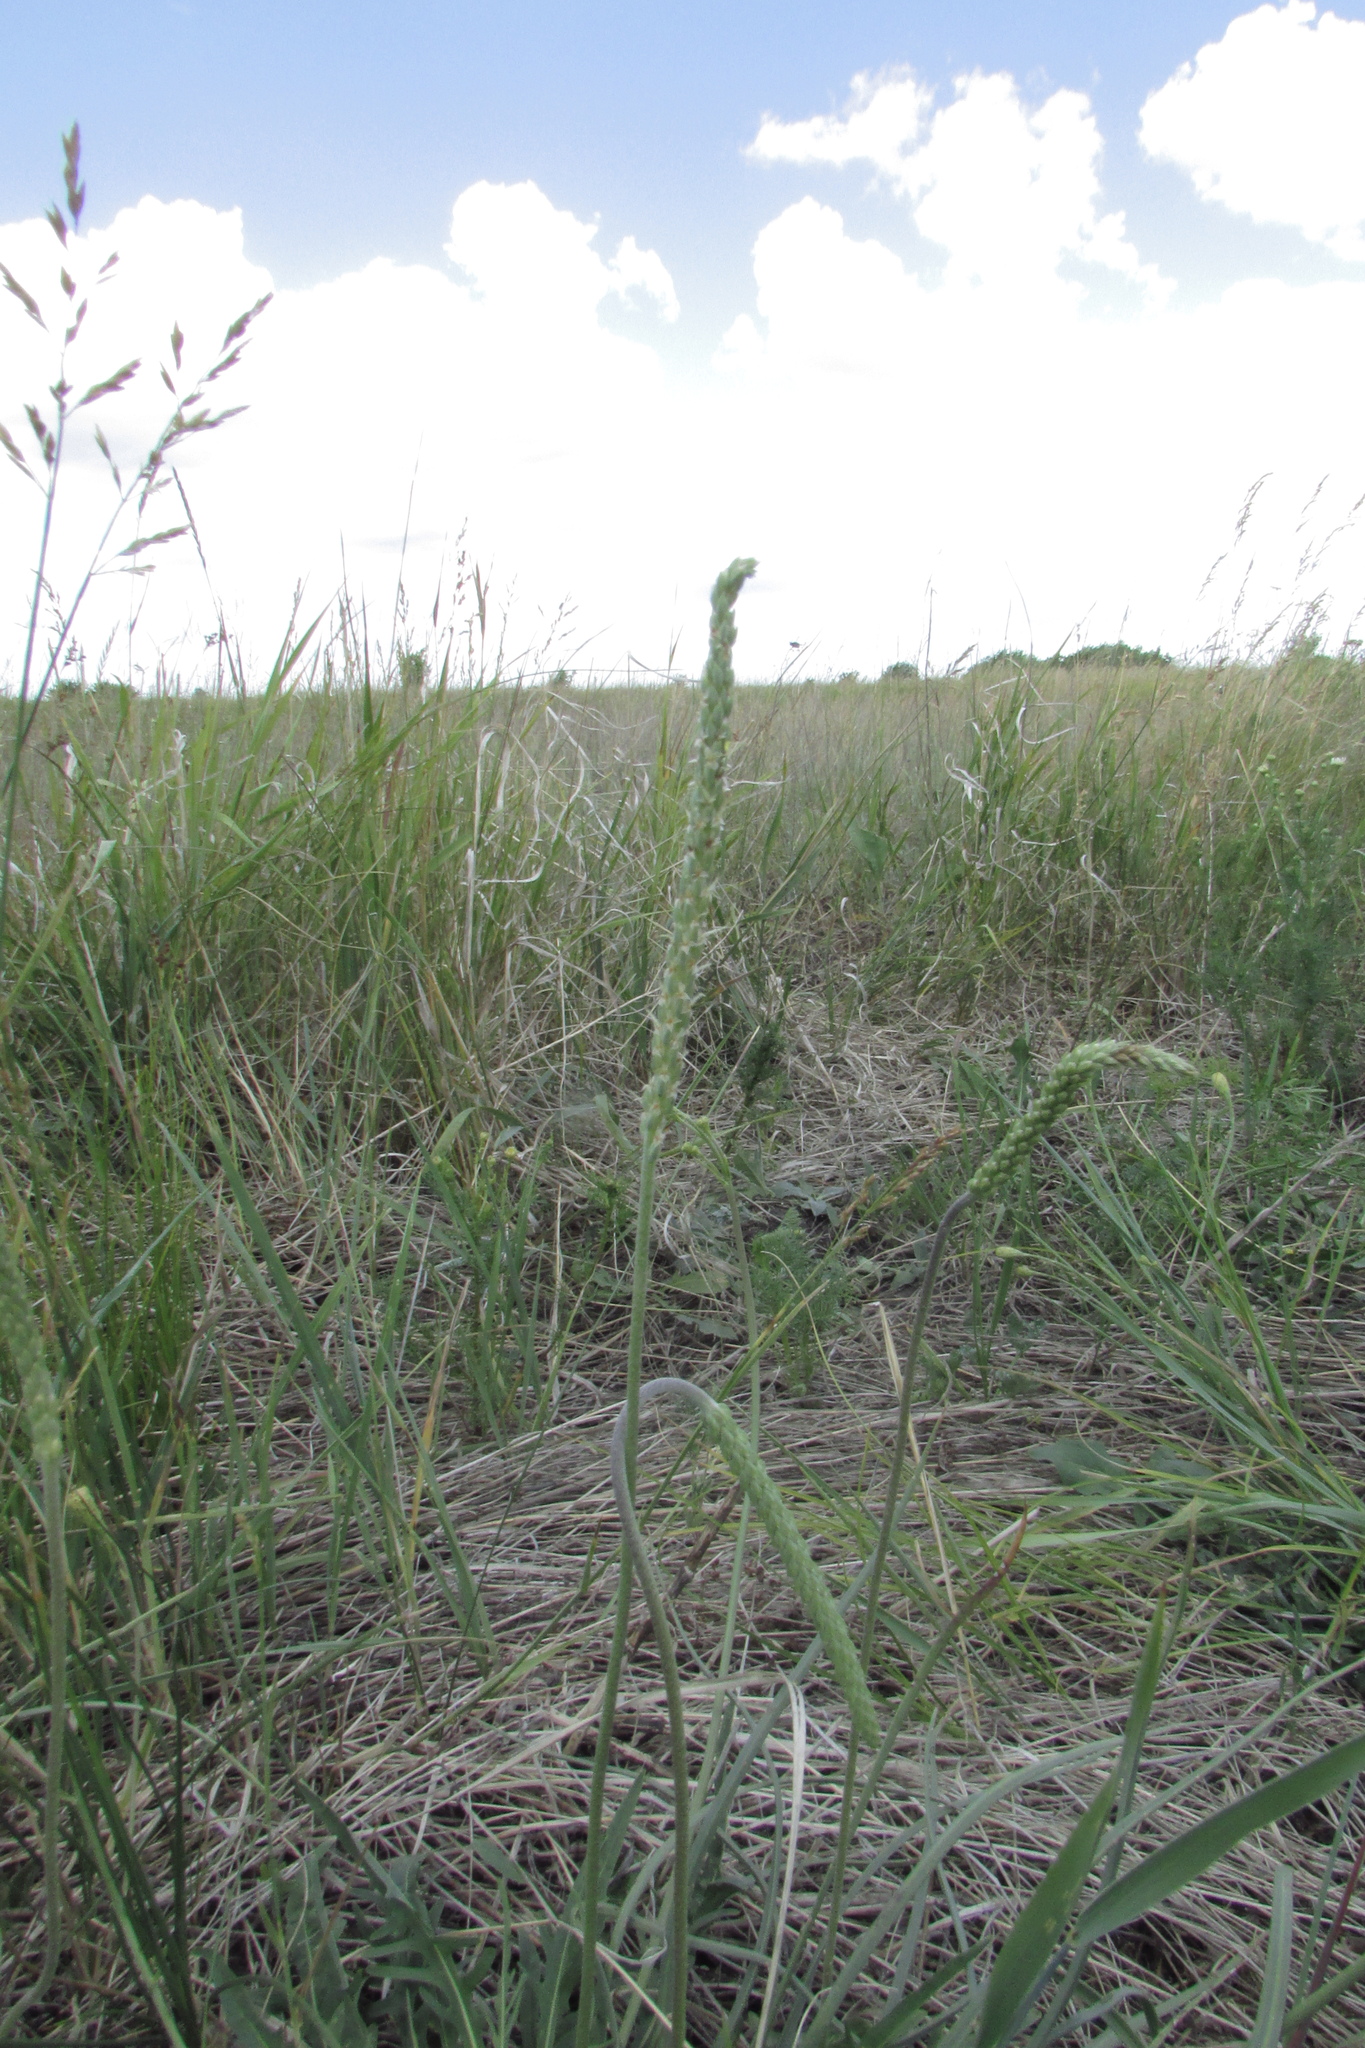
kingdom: Plantae
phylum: Tracheophyta
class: Magnoliopsida
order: Lamiales
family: Plantaginaceae
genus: Plantago
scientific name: Plantago salsa
